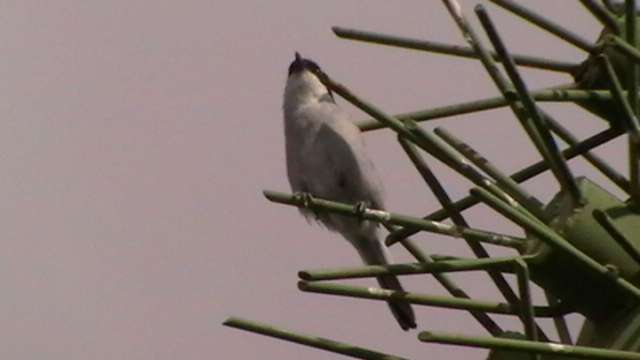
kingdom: Animalia
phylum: Chordata
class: Aves
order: Passeriformes
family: Laniidae
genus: Lanius
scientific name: Lanius excubitor
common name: Great grey shrike
